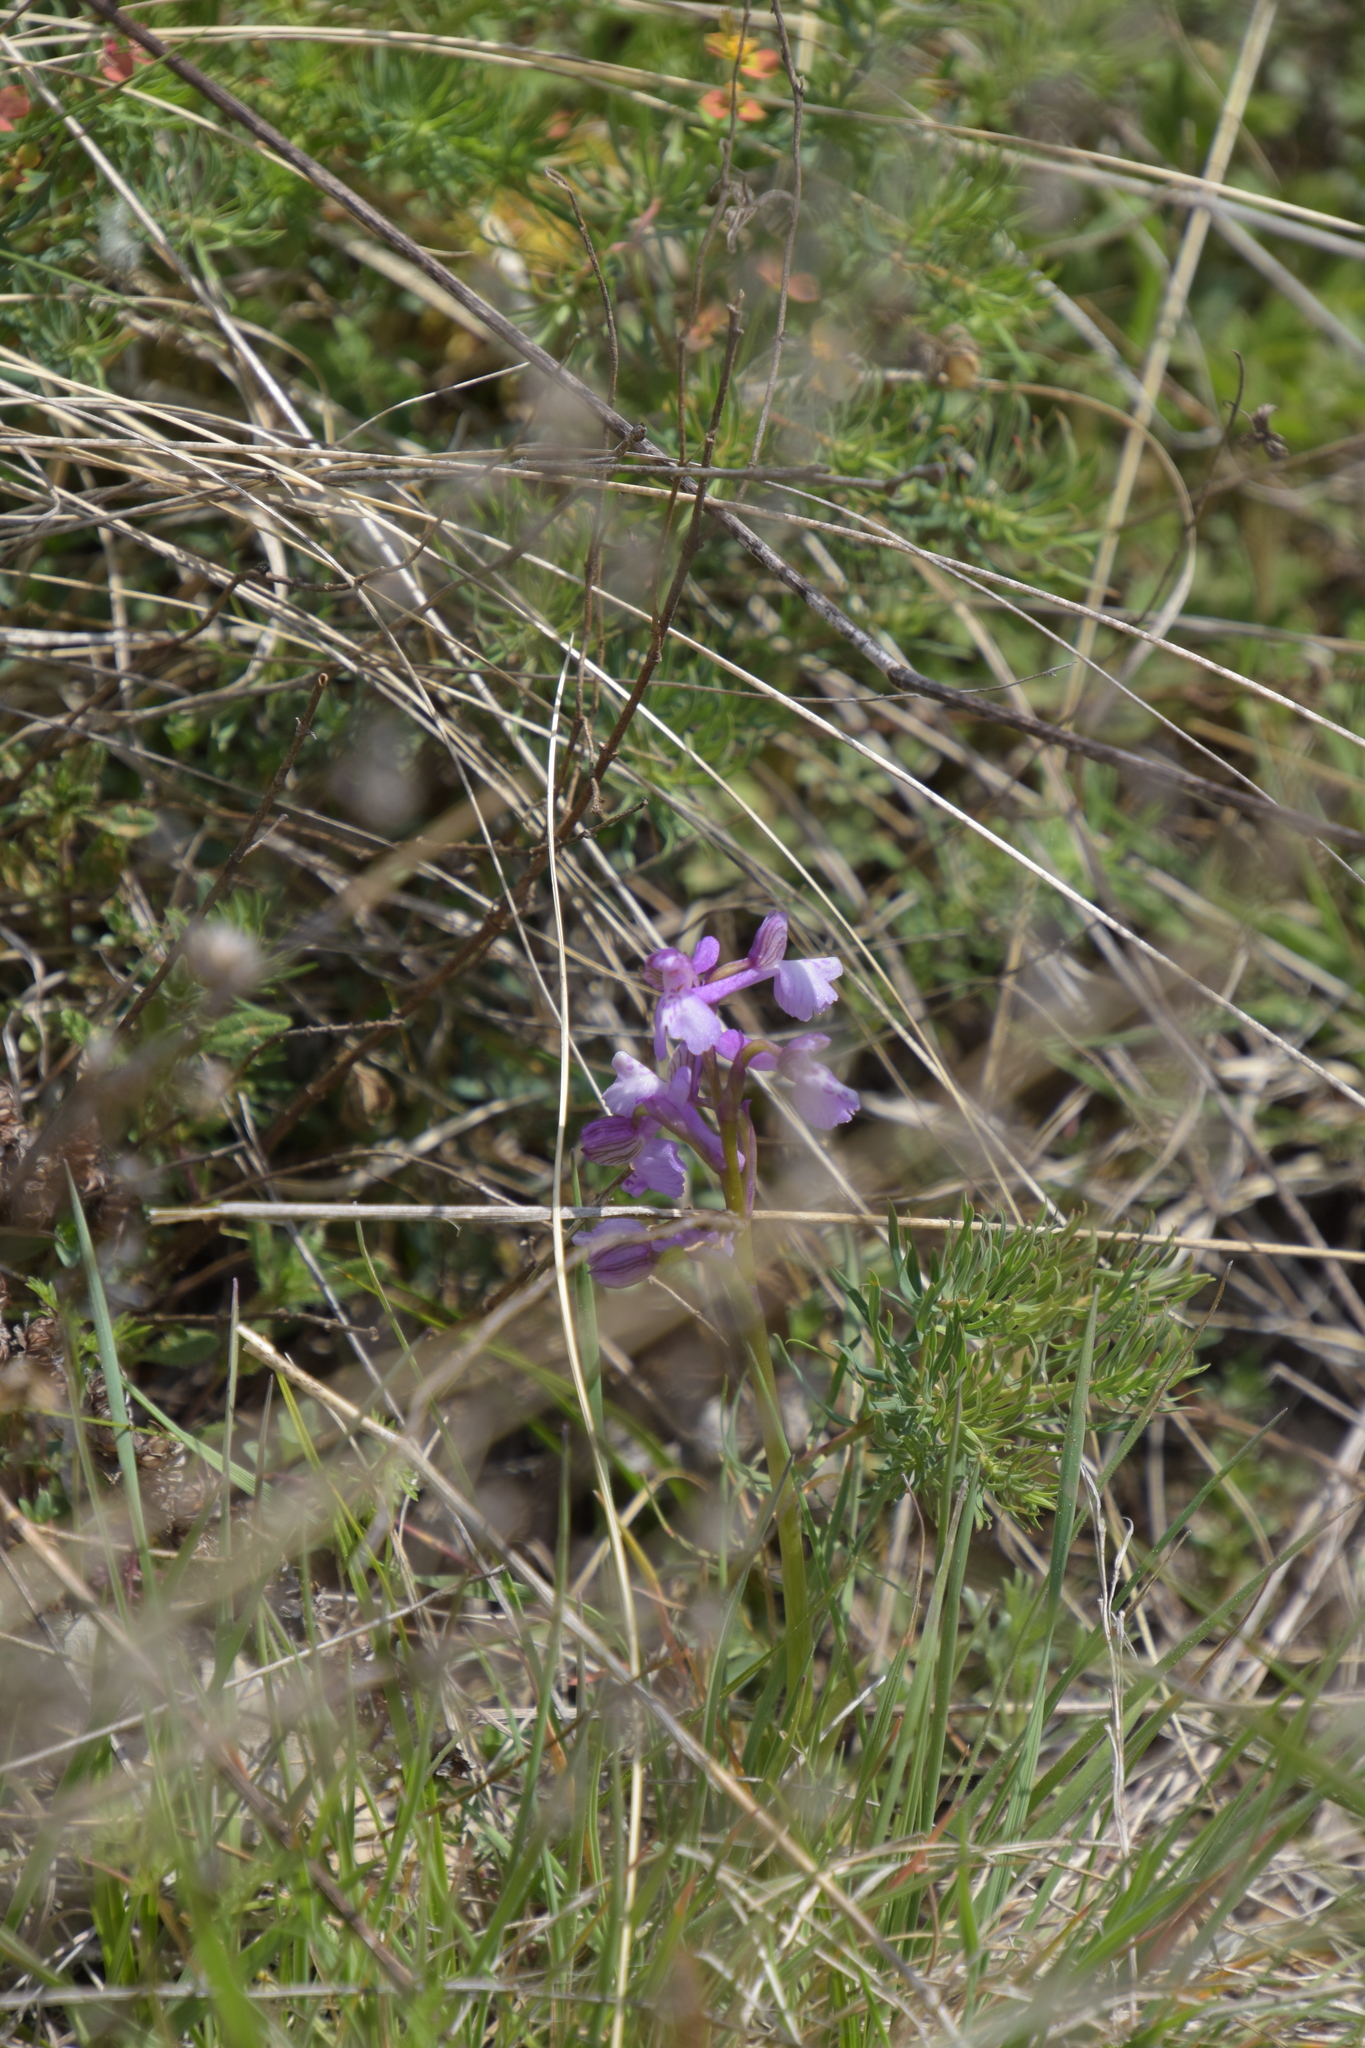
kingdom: Plantae
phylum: Tracheophyta
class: Liliopsida
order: Asparagales
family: Orchidaceae
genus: Anacamptis
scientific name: Anacamptis morio
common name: Green-winged orchid
